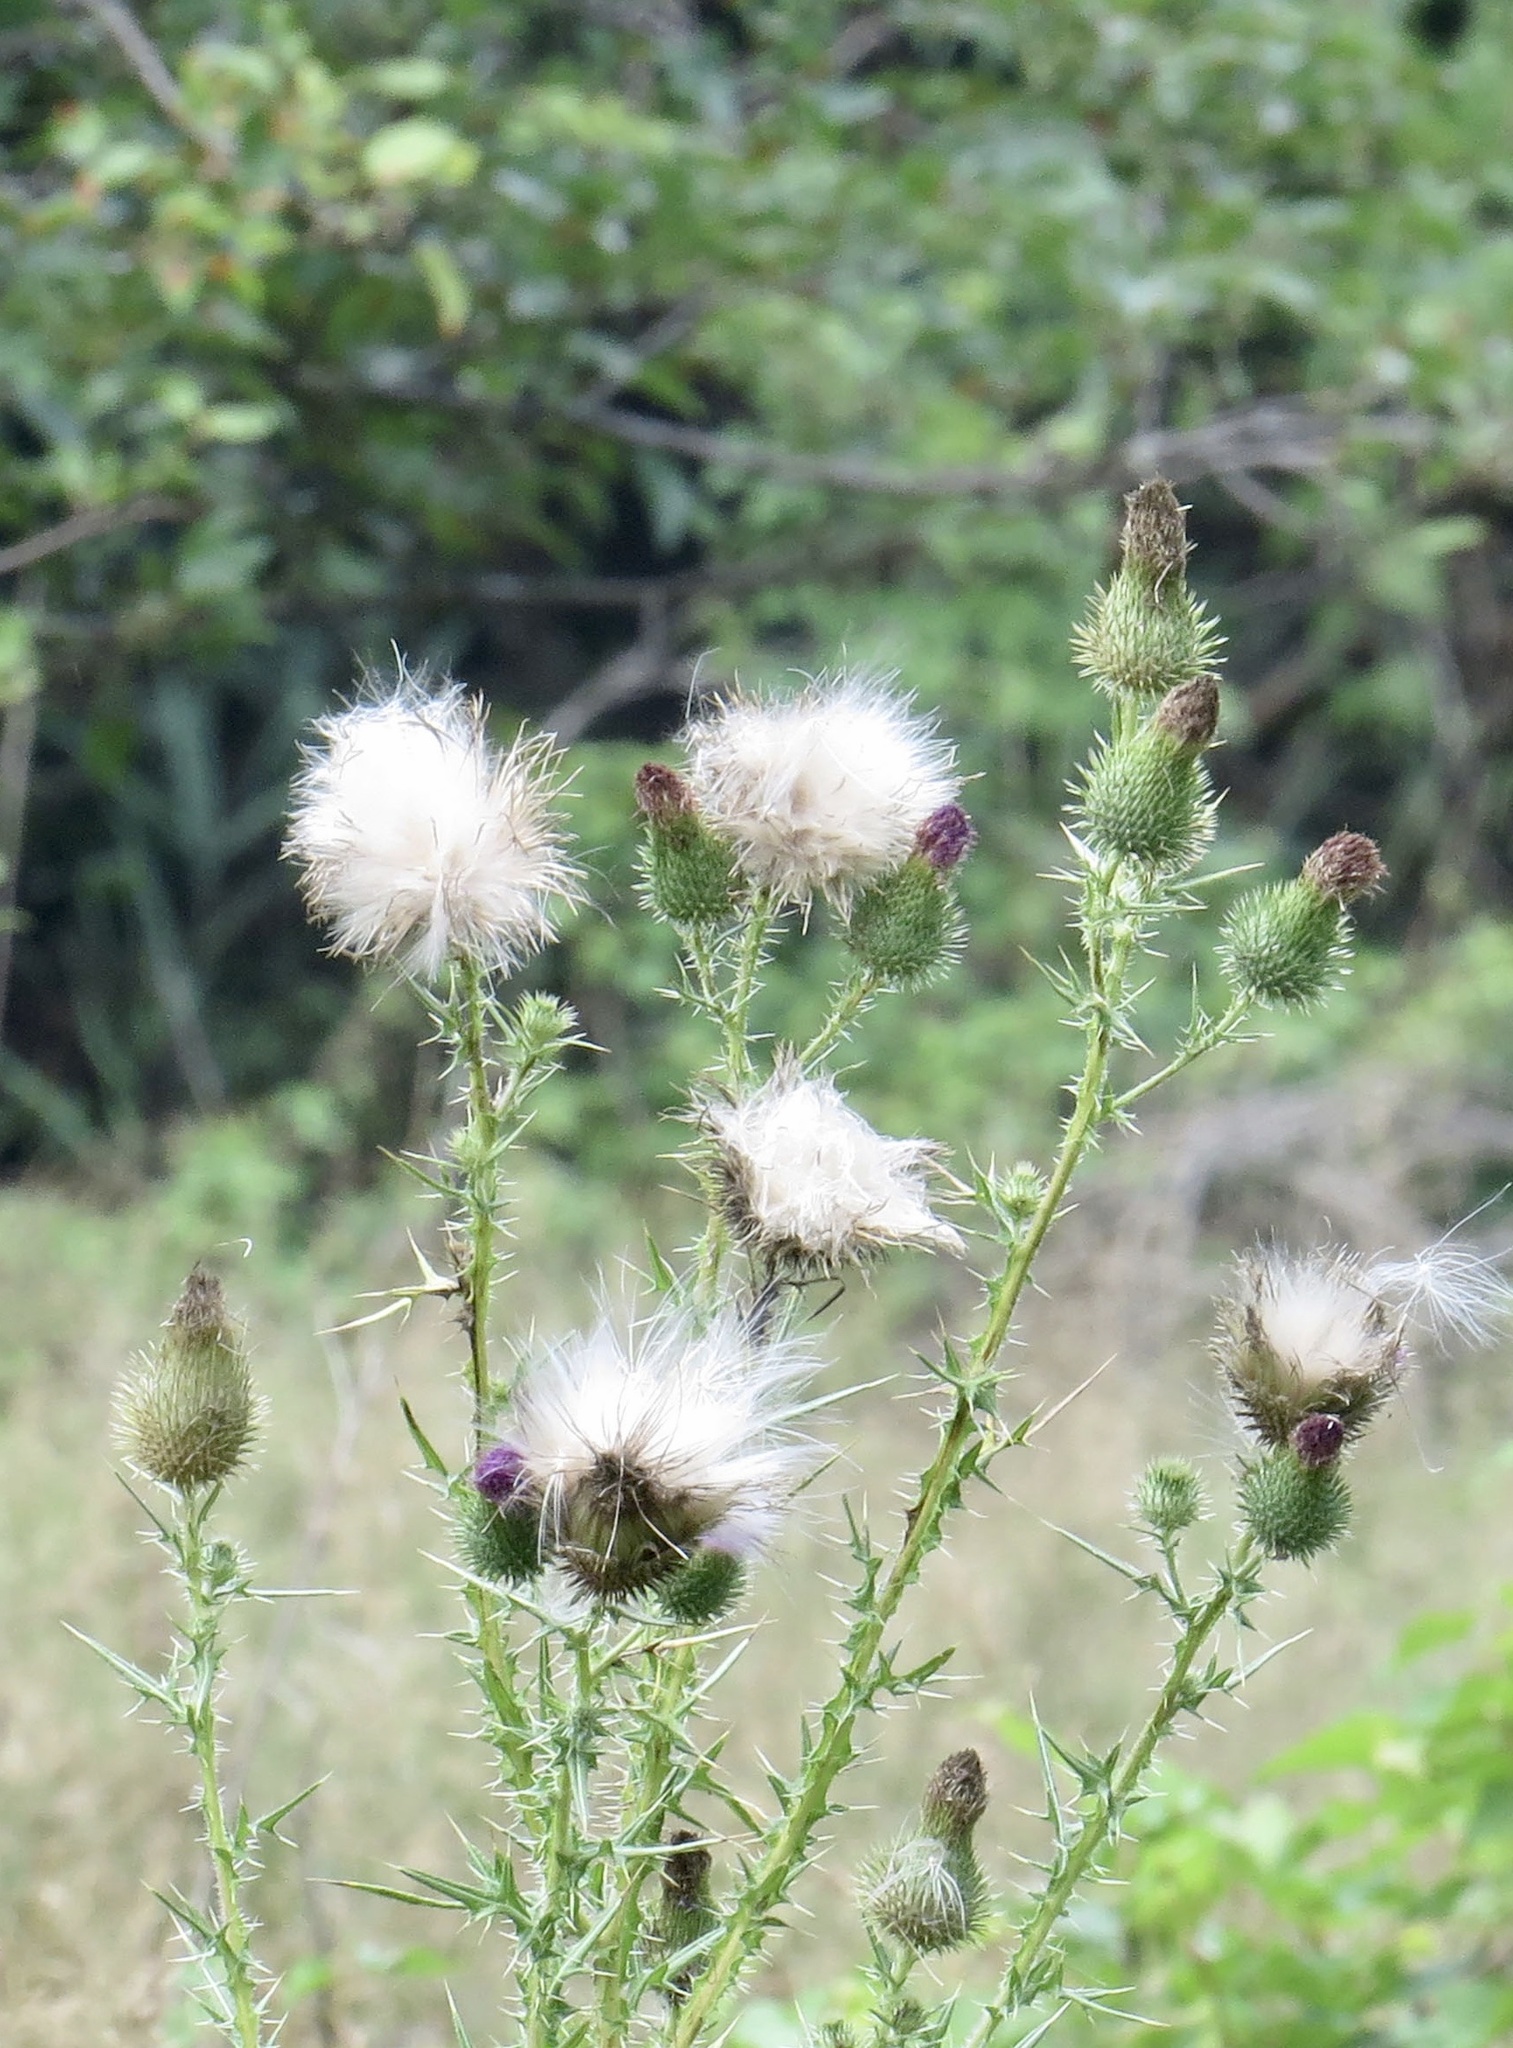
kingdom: Plantae
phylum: Tracheophyta
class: Magnoliopsida
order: Asterales
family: Asteraceae
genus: Cirsium
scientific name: Cirsium vulgare
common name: Bull thistle
